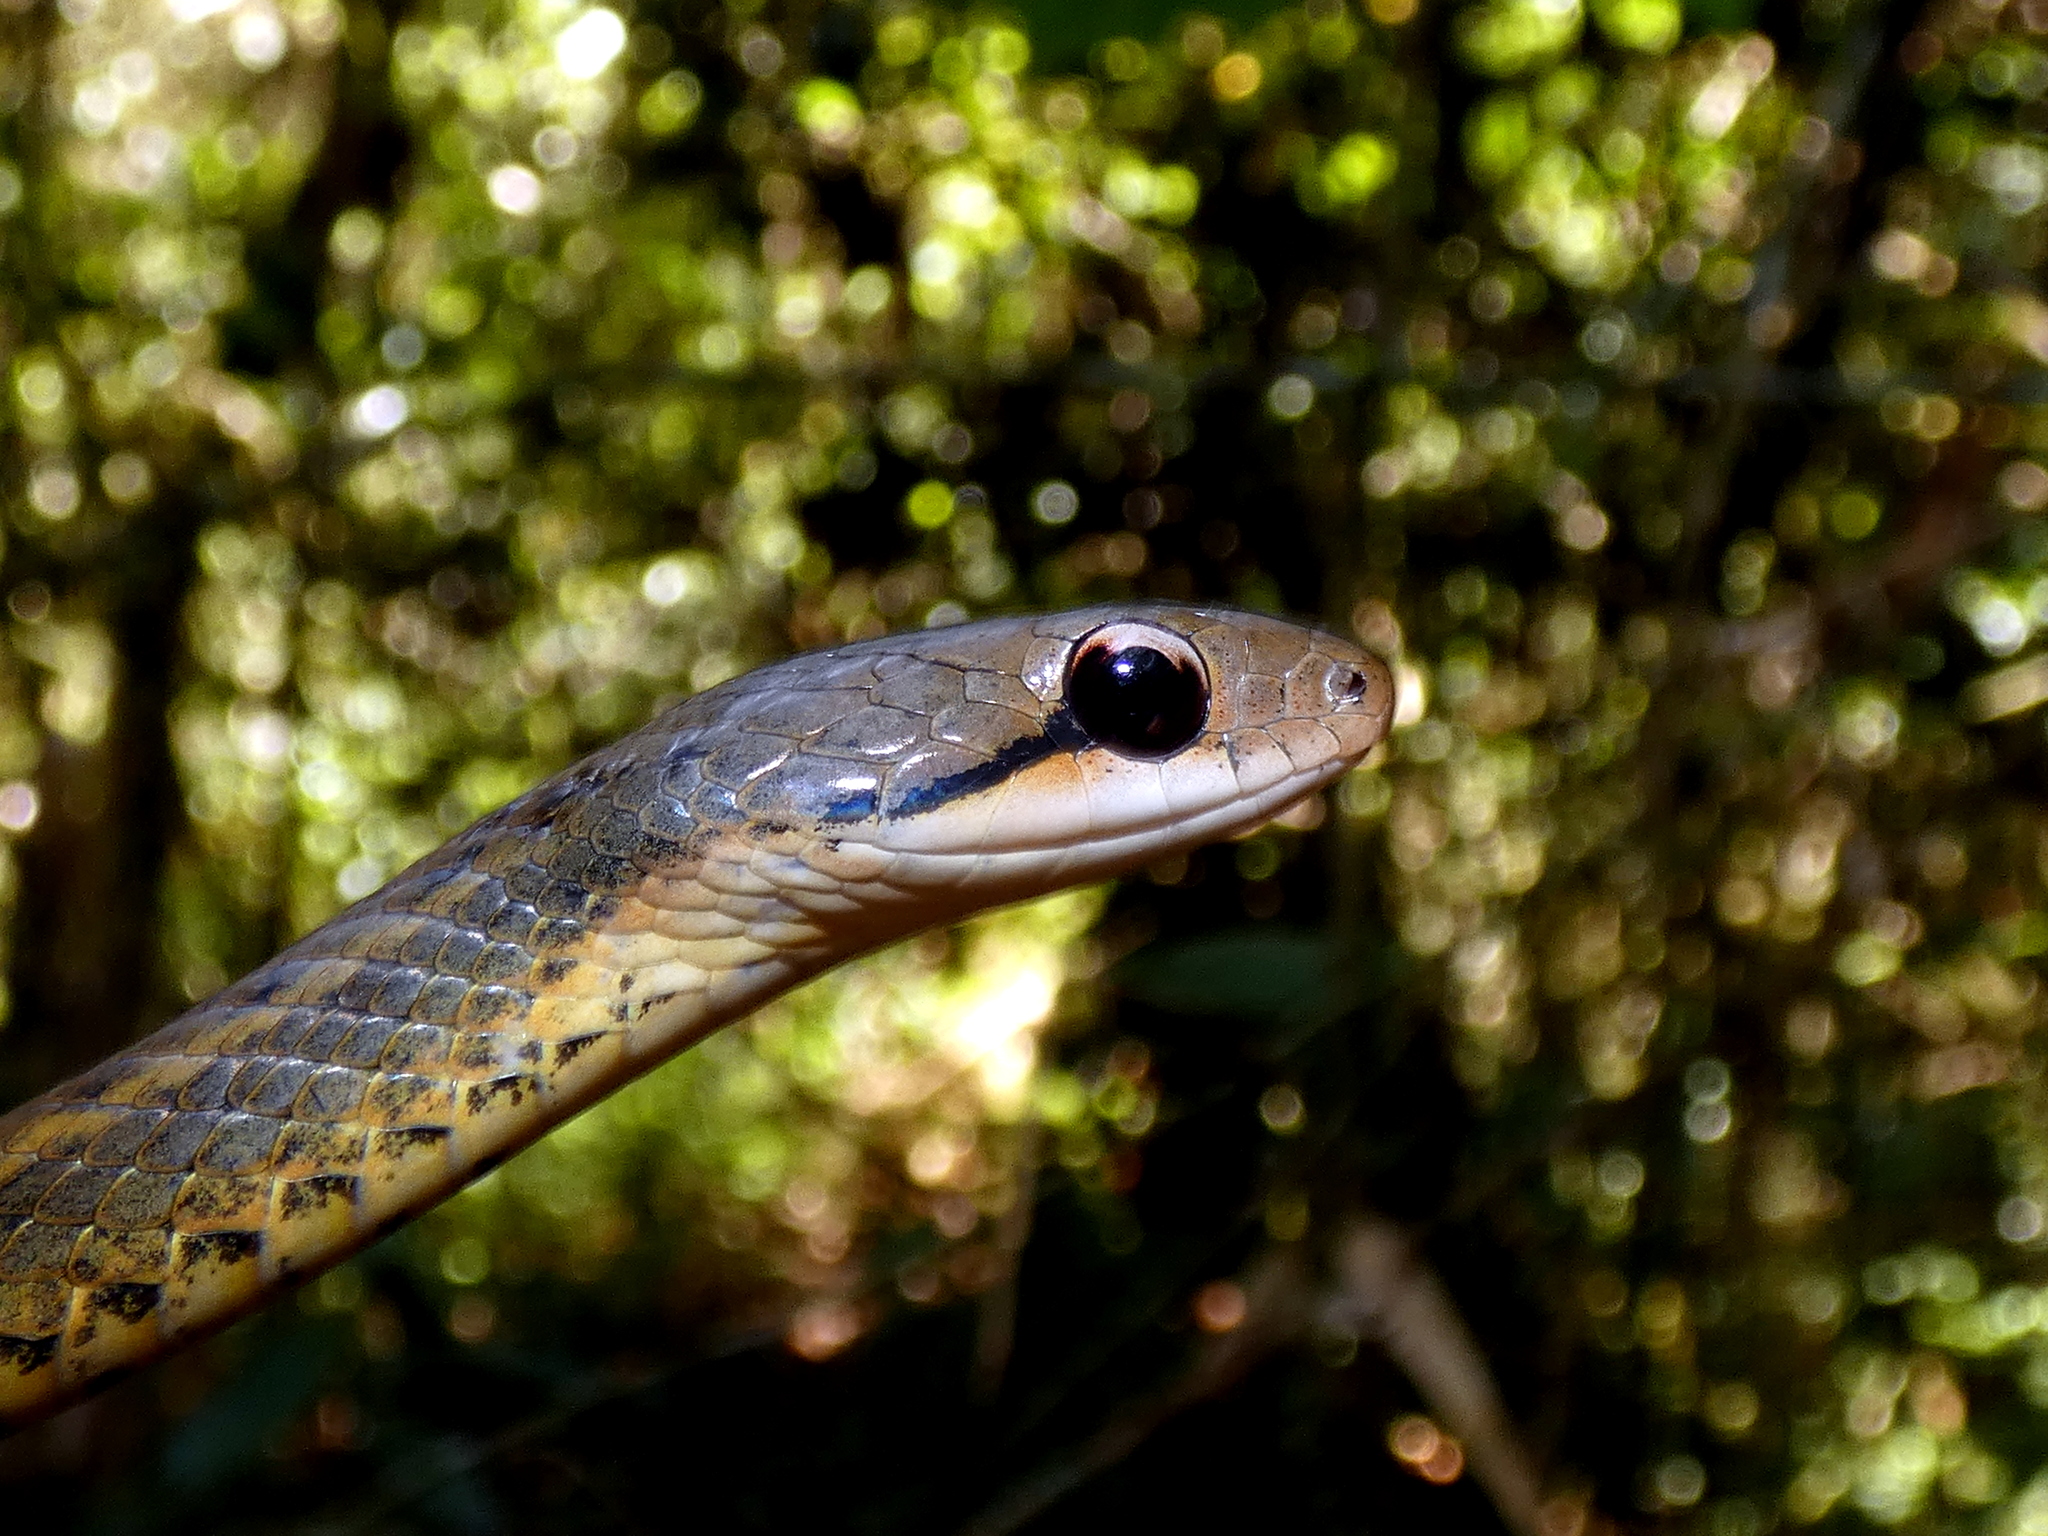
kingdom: Animalia
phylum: Chordata
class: Squamata
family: Pseudoxyrhophiidae
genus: Thamnosophis
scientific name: Thamnosophis infrasignatus
